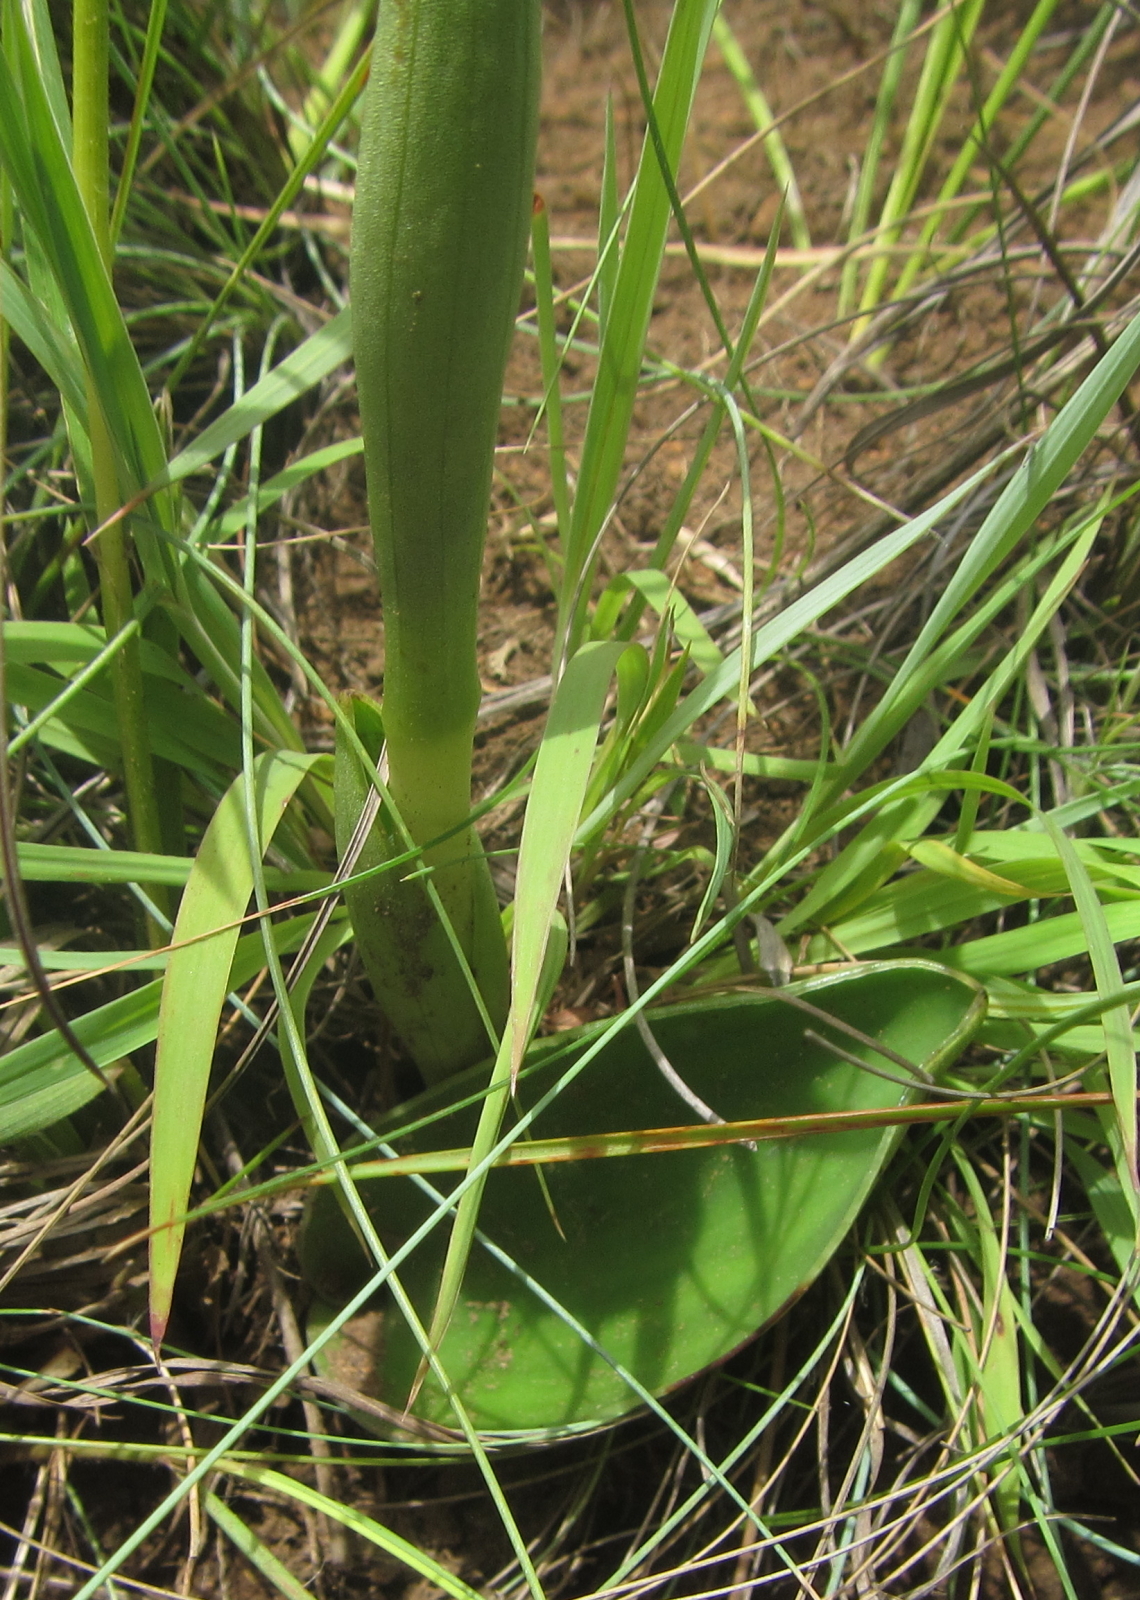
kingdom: Plantae
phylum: Tracheophyta
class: Liliopsida
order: Asparagales
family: Orchidaceae
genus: Satyrium
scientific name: Satyrium longicauda
